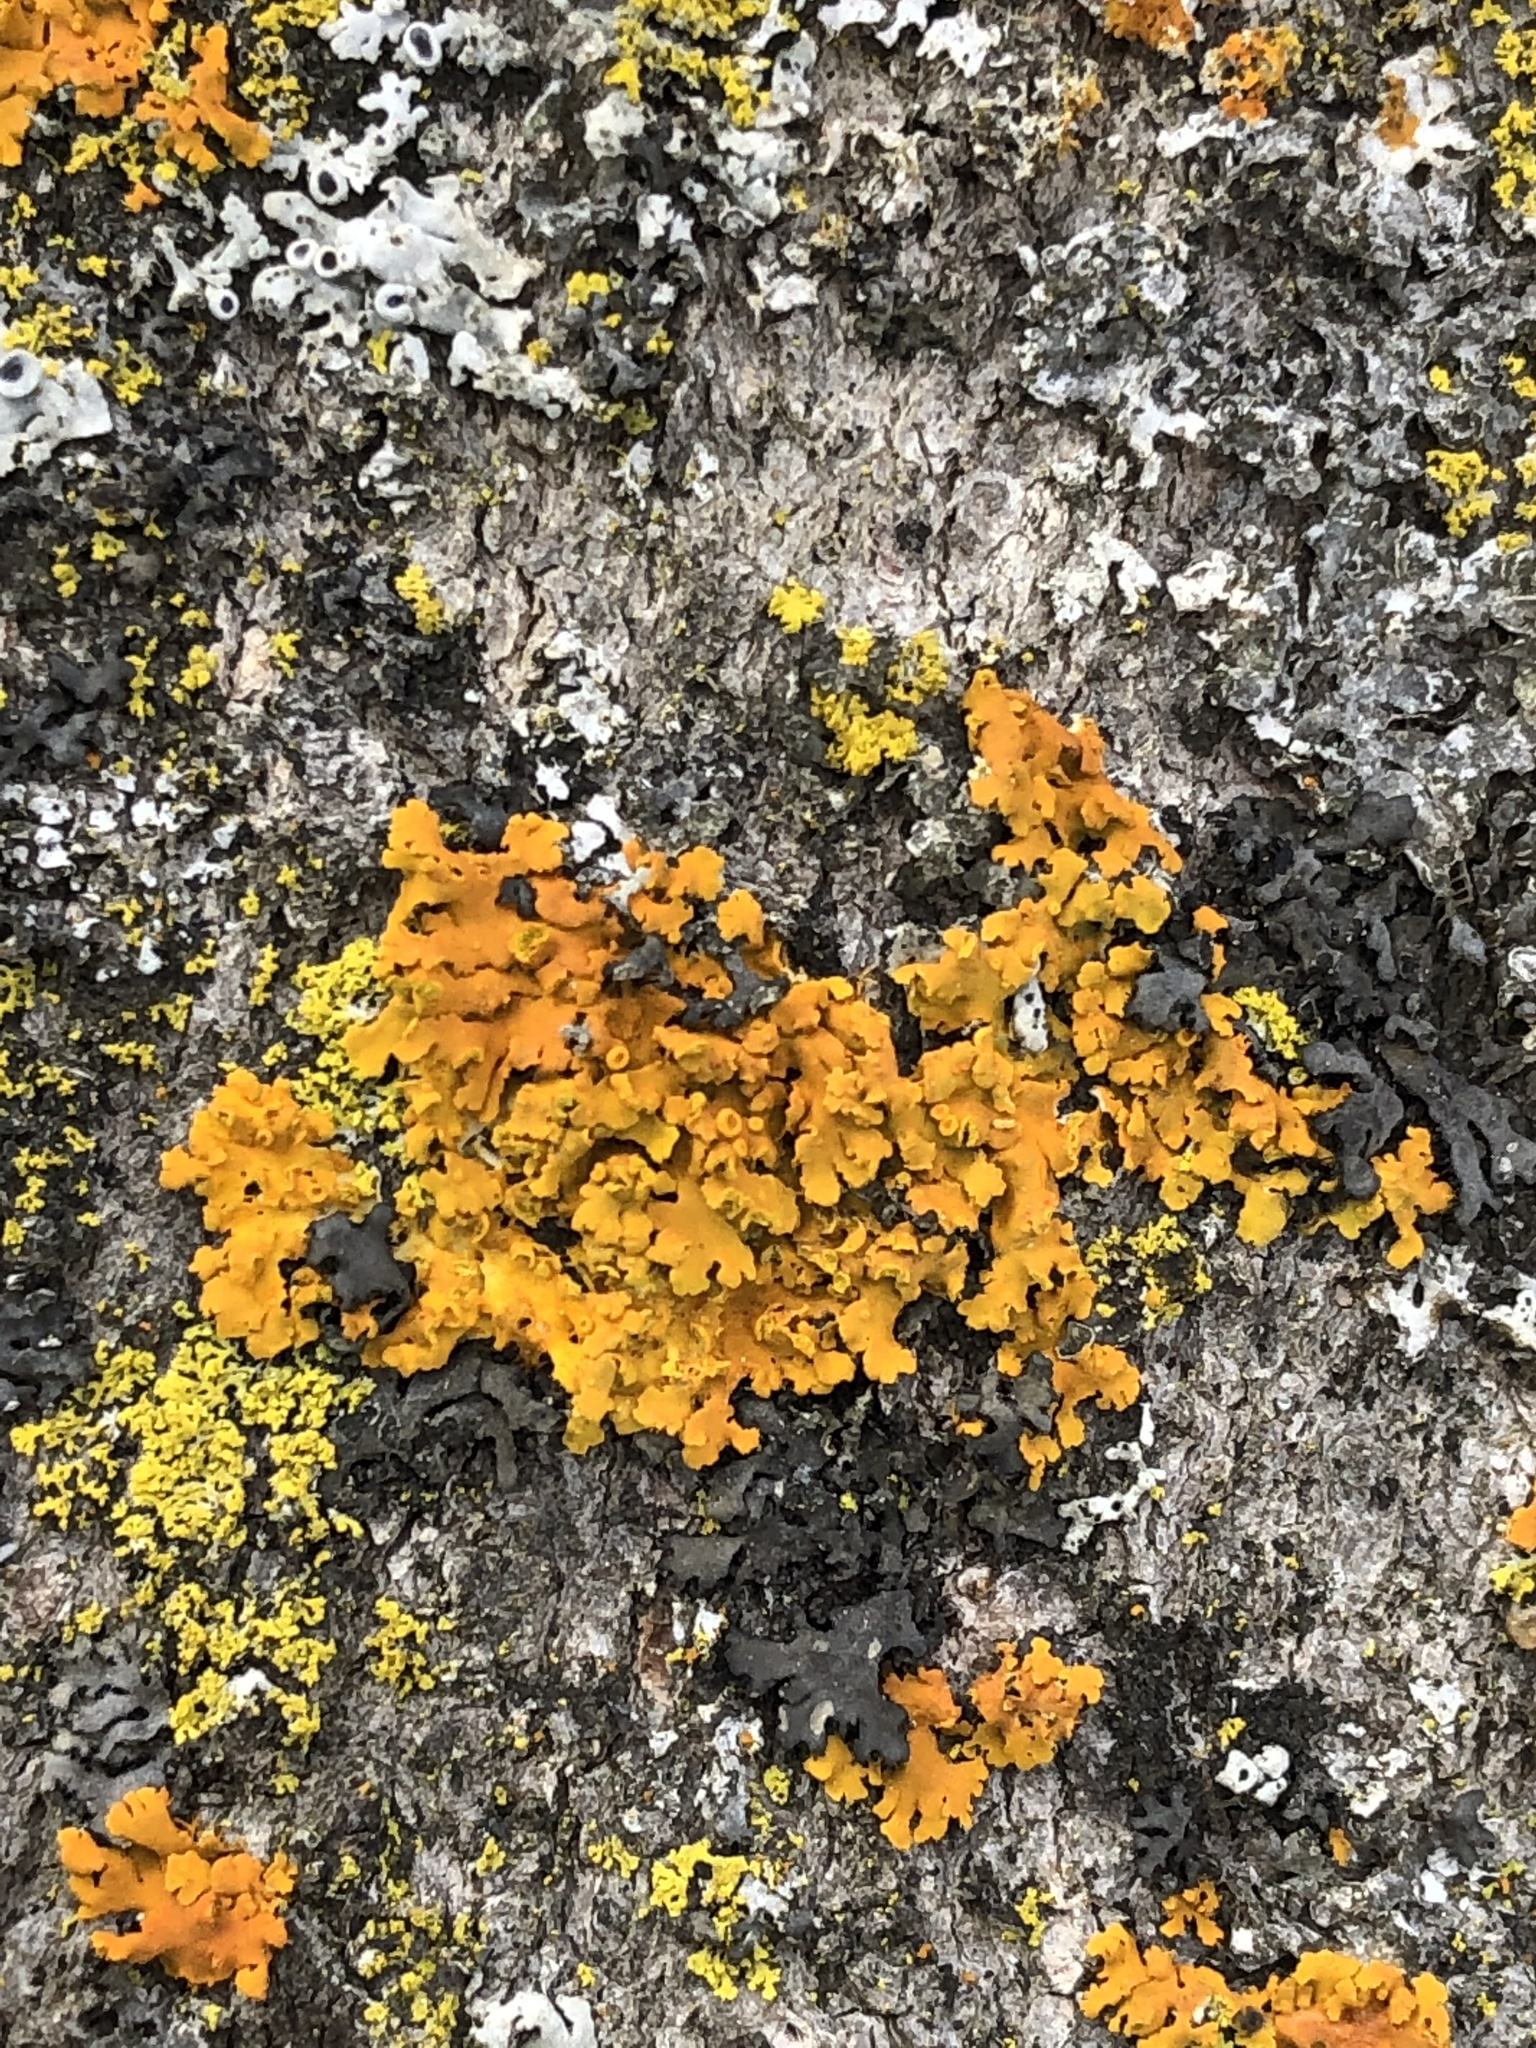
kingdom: Fungi
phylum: Ascomycota
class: Lecanoromycetes
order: Teloschistales
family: Teloschistaceae
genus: Oxneria
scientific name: Oxneria fallax
